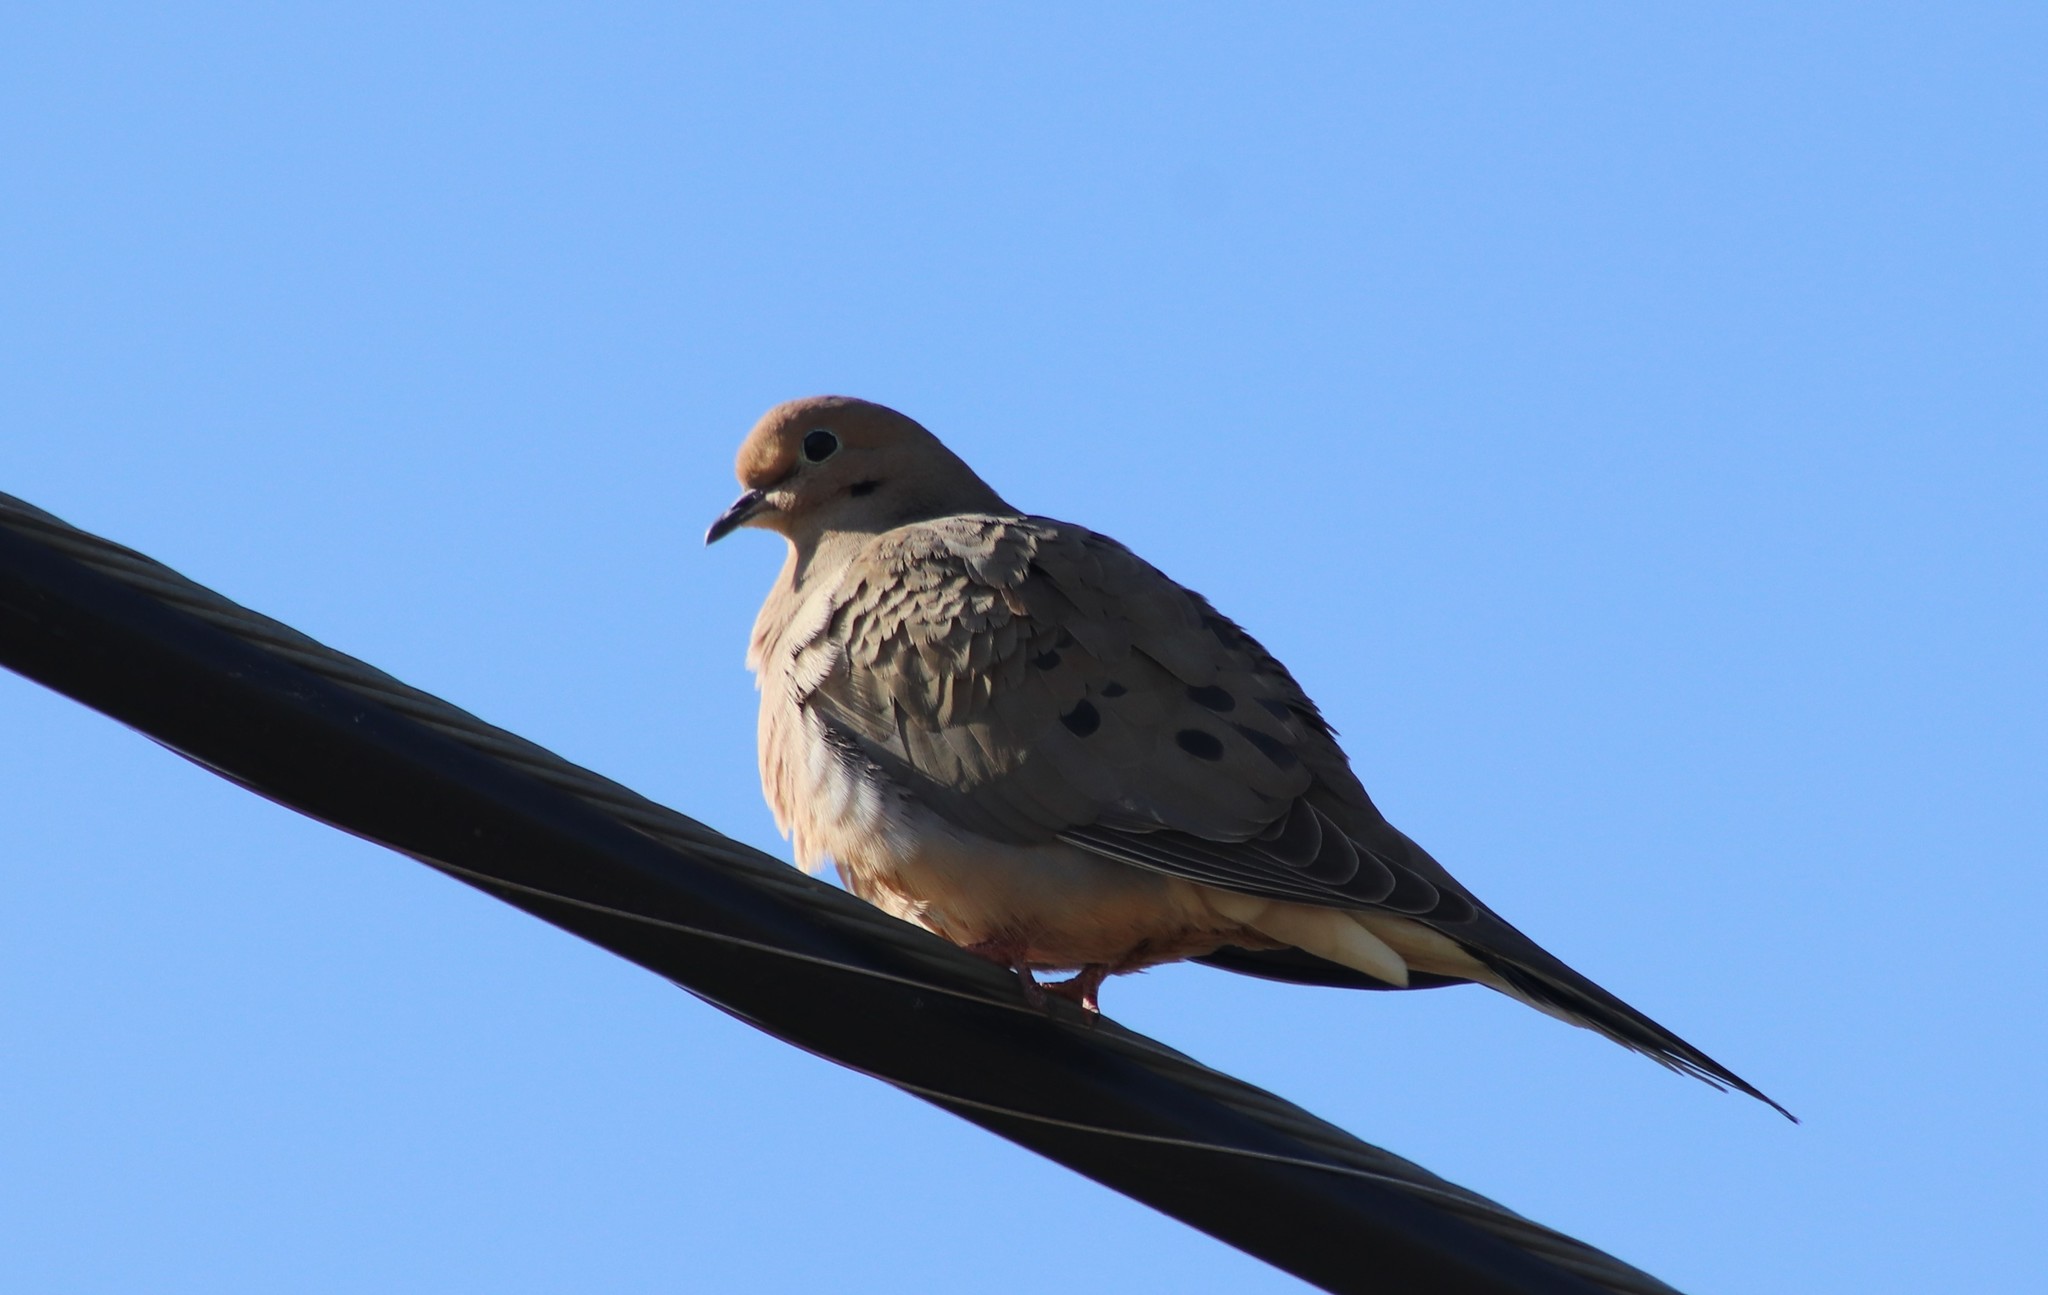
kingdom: Animalia
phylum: Chordata
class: Aves
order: Columbiformes
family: Columbidae
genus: Zenaida
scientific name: Zenaida macroura
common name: Mourning dove
